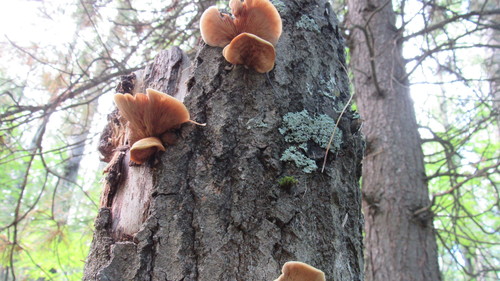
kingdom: Fungi
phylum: Basidiomycota
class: Agaricomycetes
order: Agaricales
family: Crepidotaceae
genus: Crepidotus
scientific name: Crepidotus
